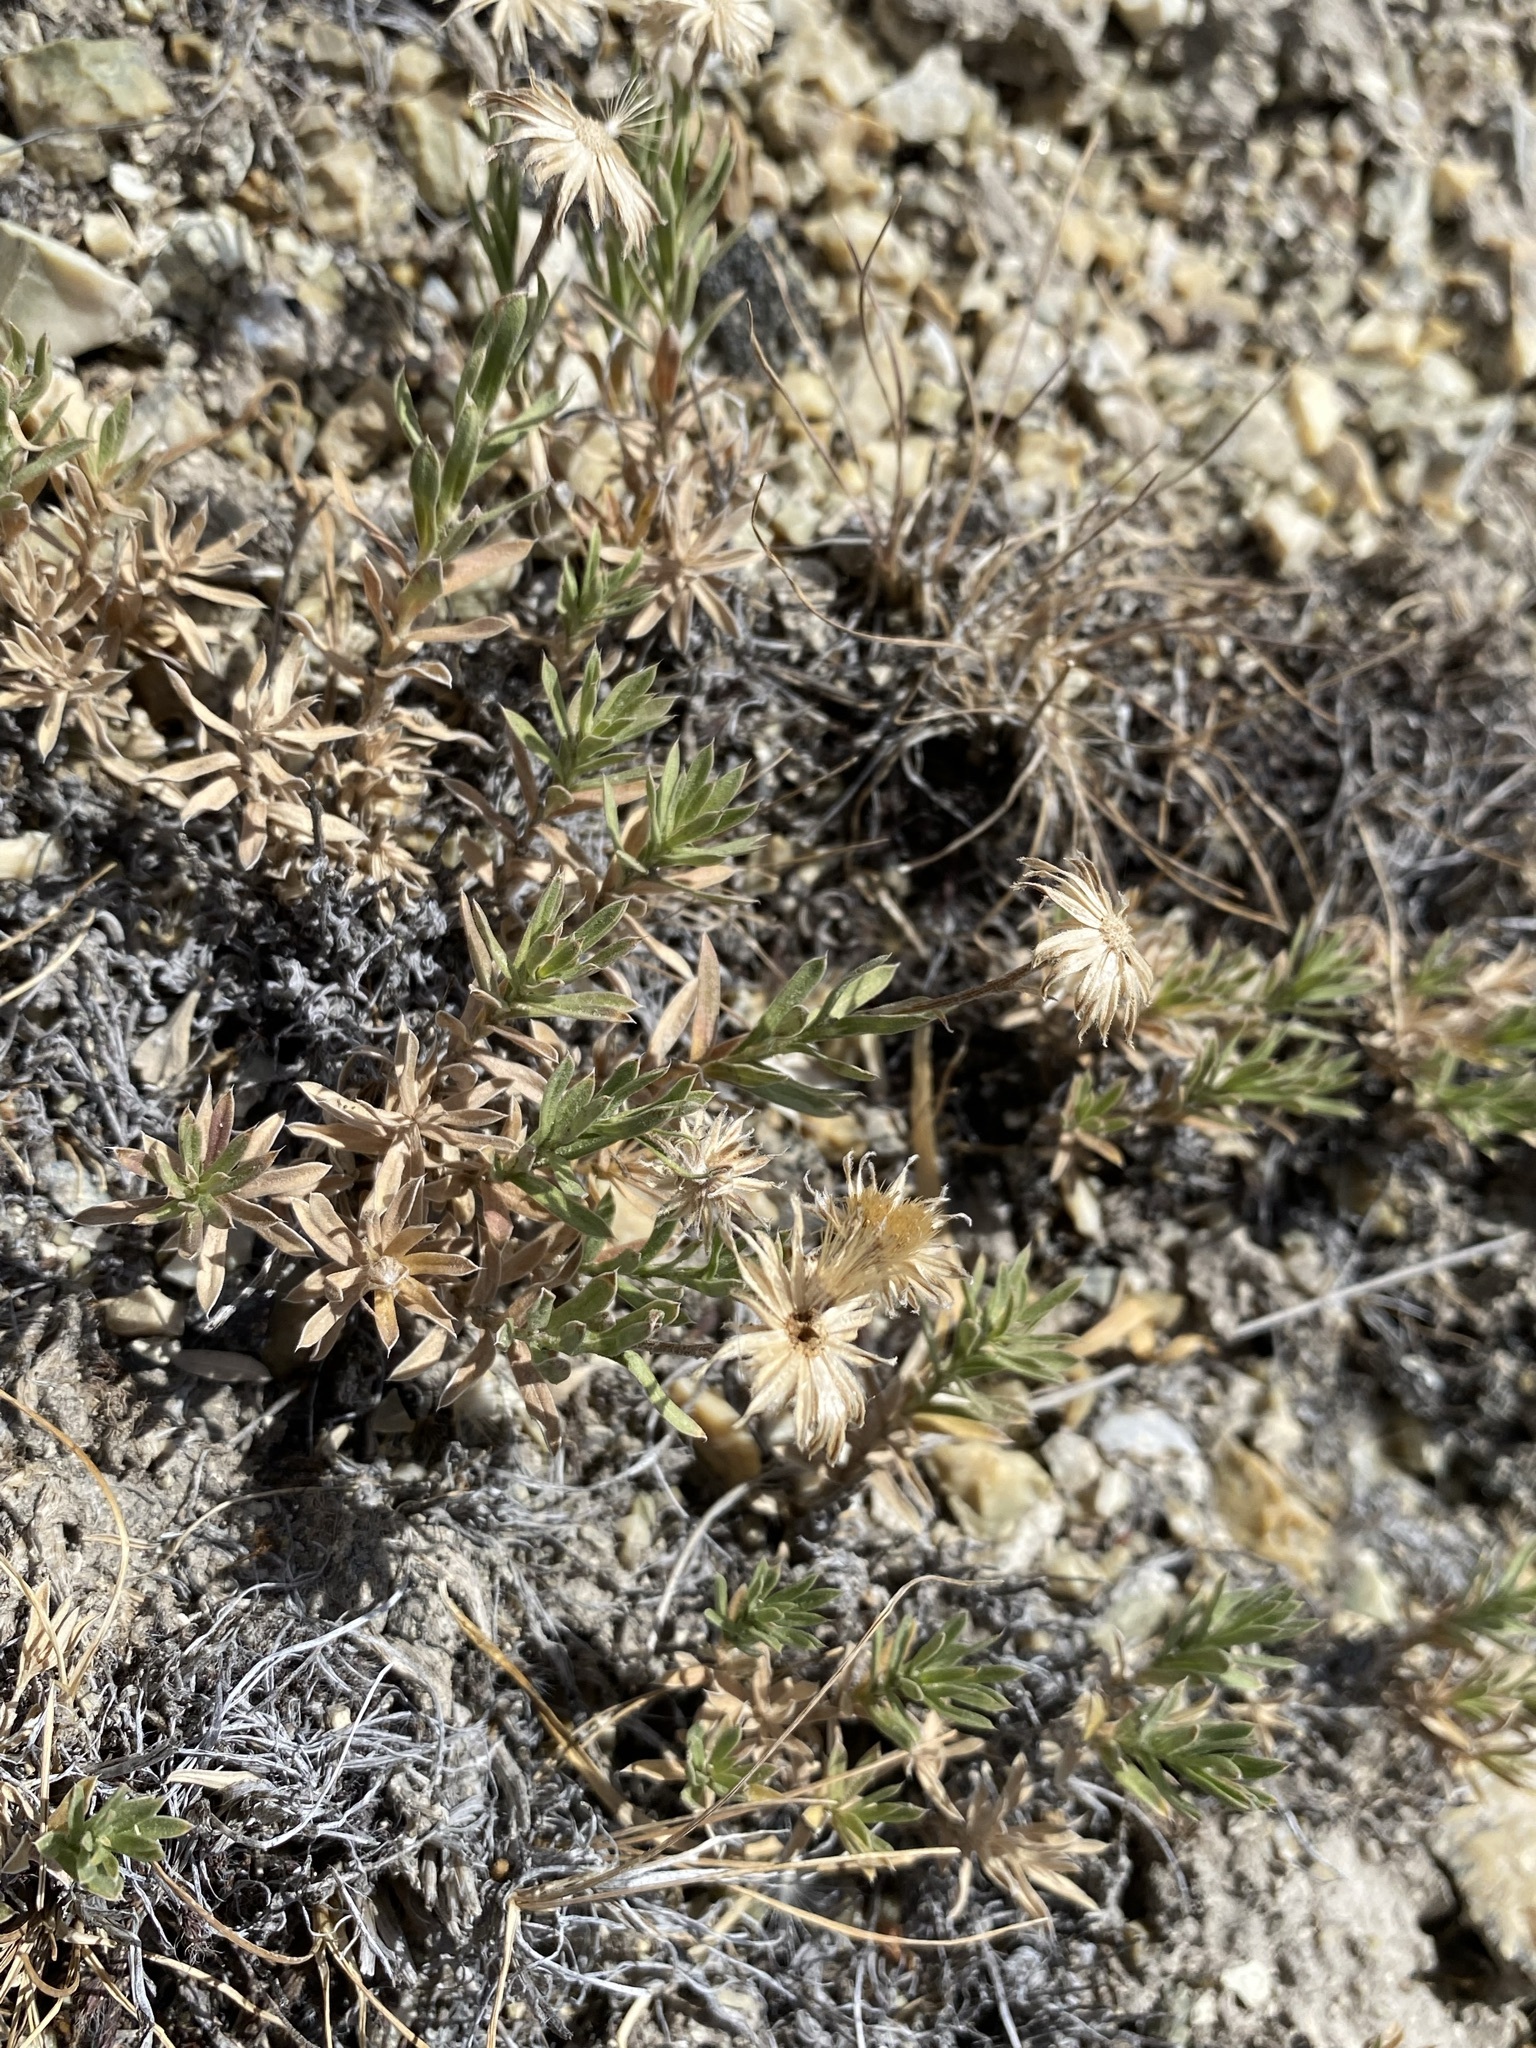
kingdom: Plantae
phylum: Tracheophyta
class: Magnoliopsida
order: Asterales
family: Asteraceae
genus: Ionactis
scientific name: Ionactis alpina
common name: Crag aster
